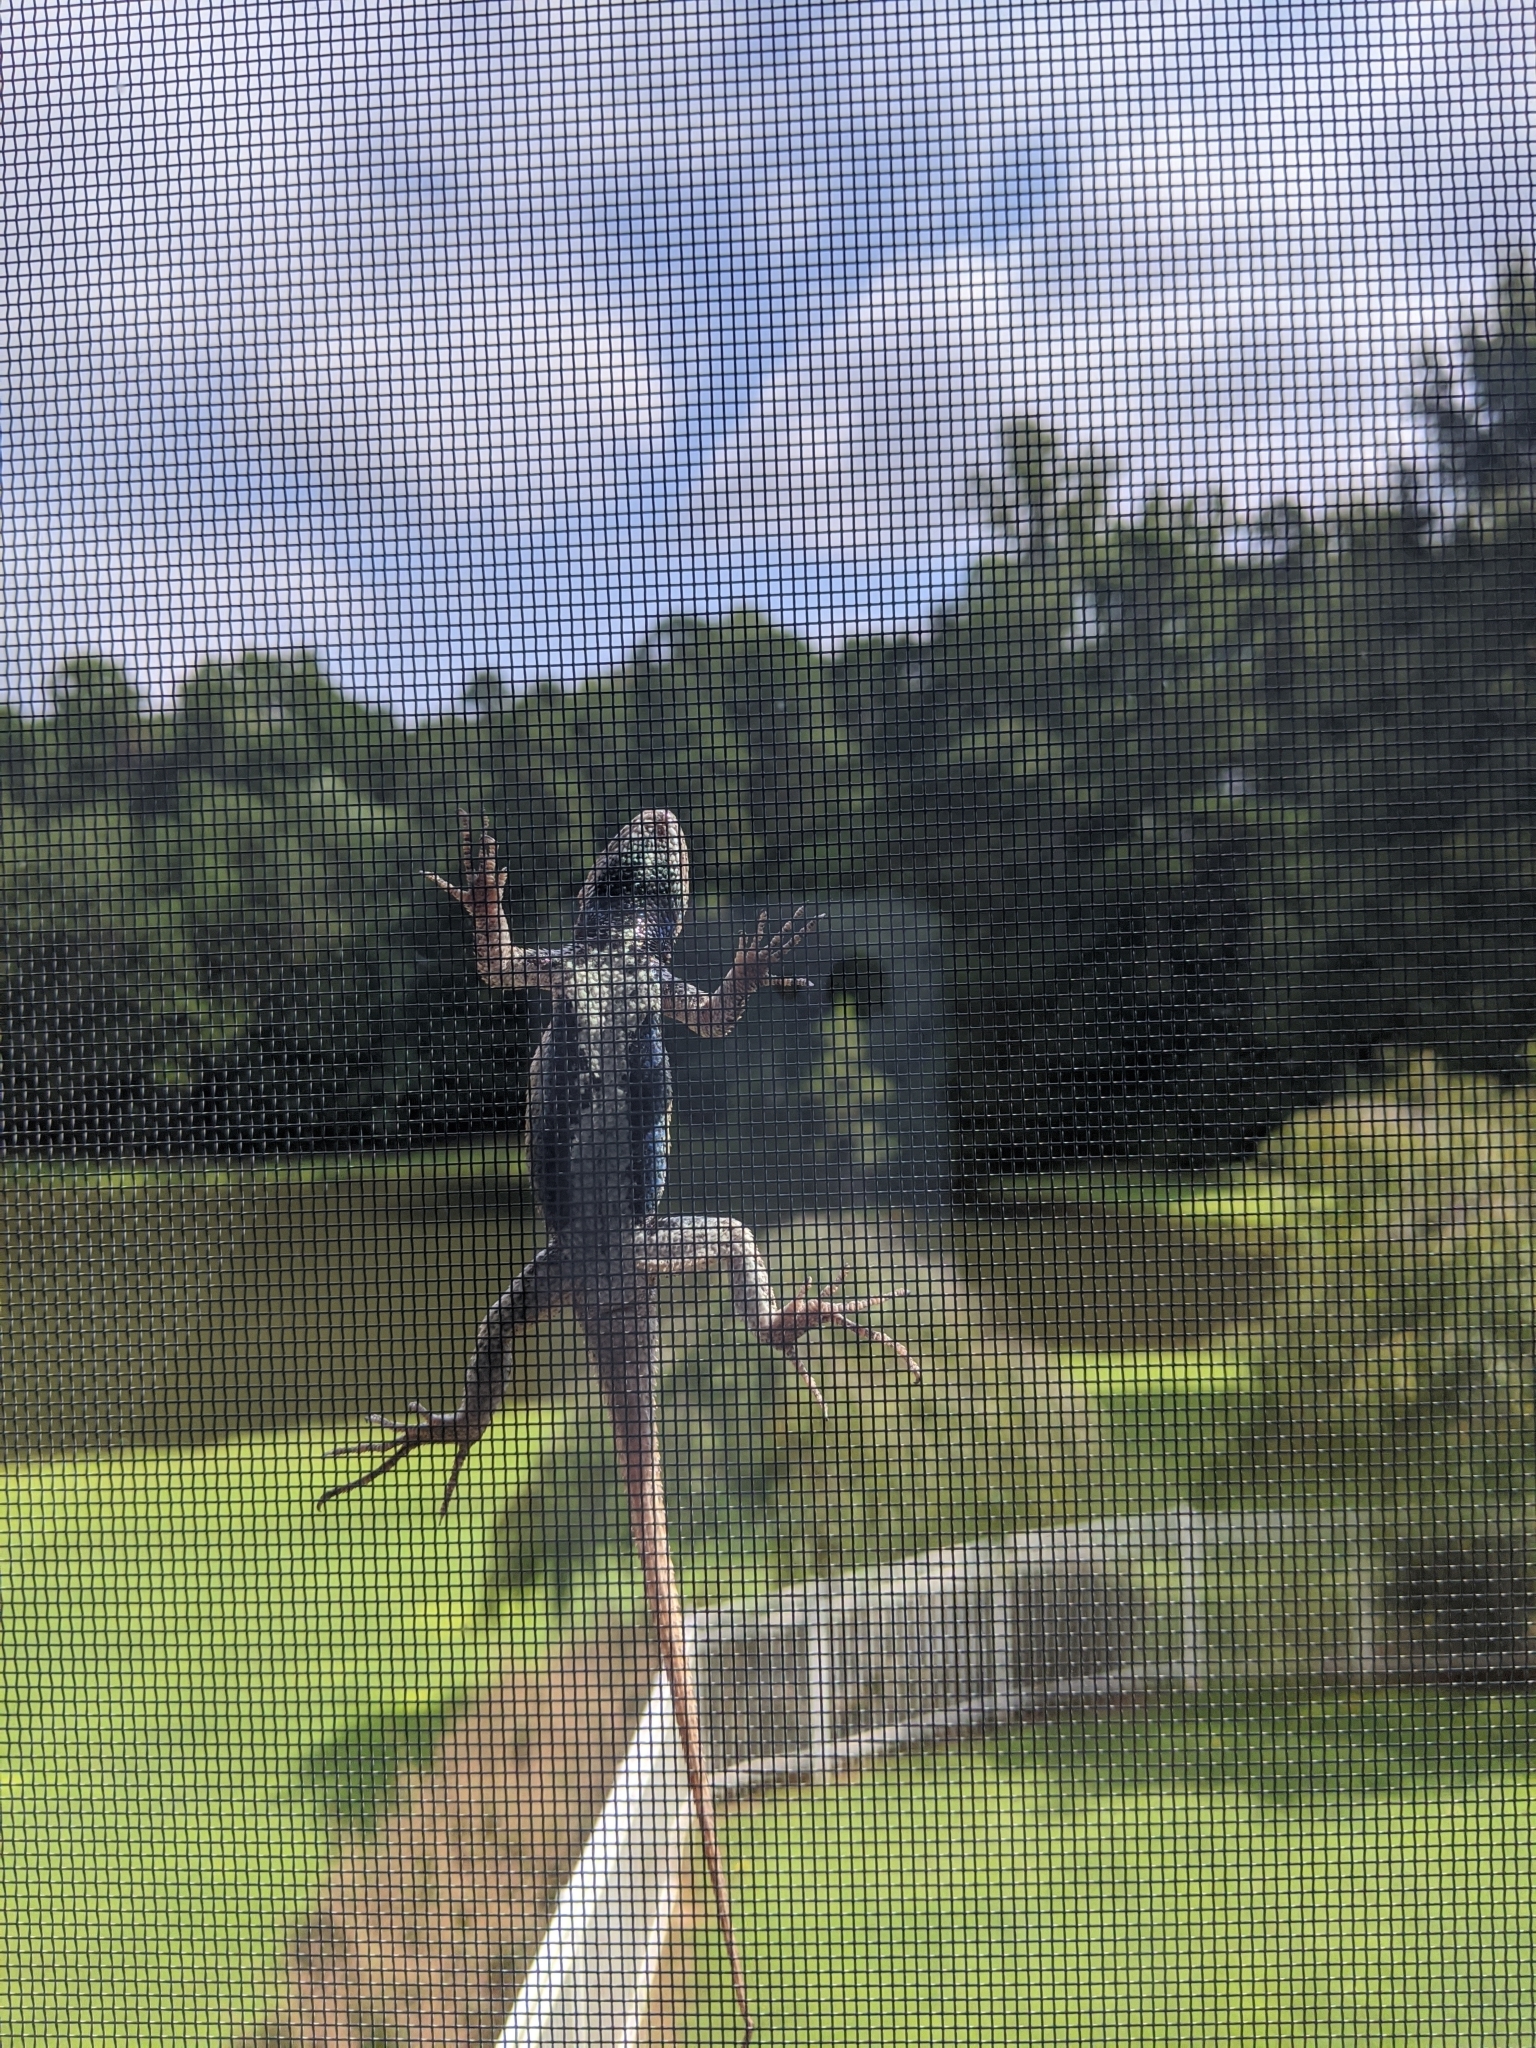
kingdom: Animalia
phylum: Chordata
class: Squamata
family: Phrynosomatidae
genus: Sceloporus
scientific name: Sceloporus undulatus
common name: Eastern fence lizard
